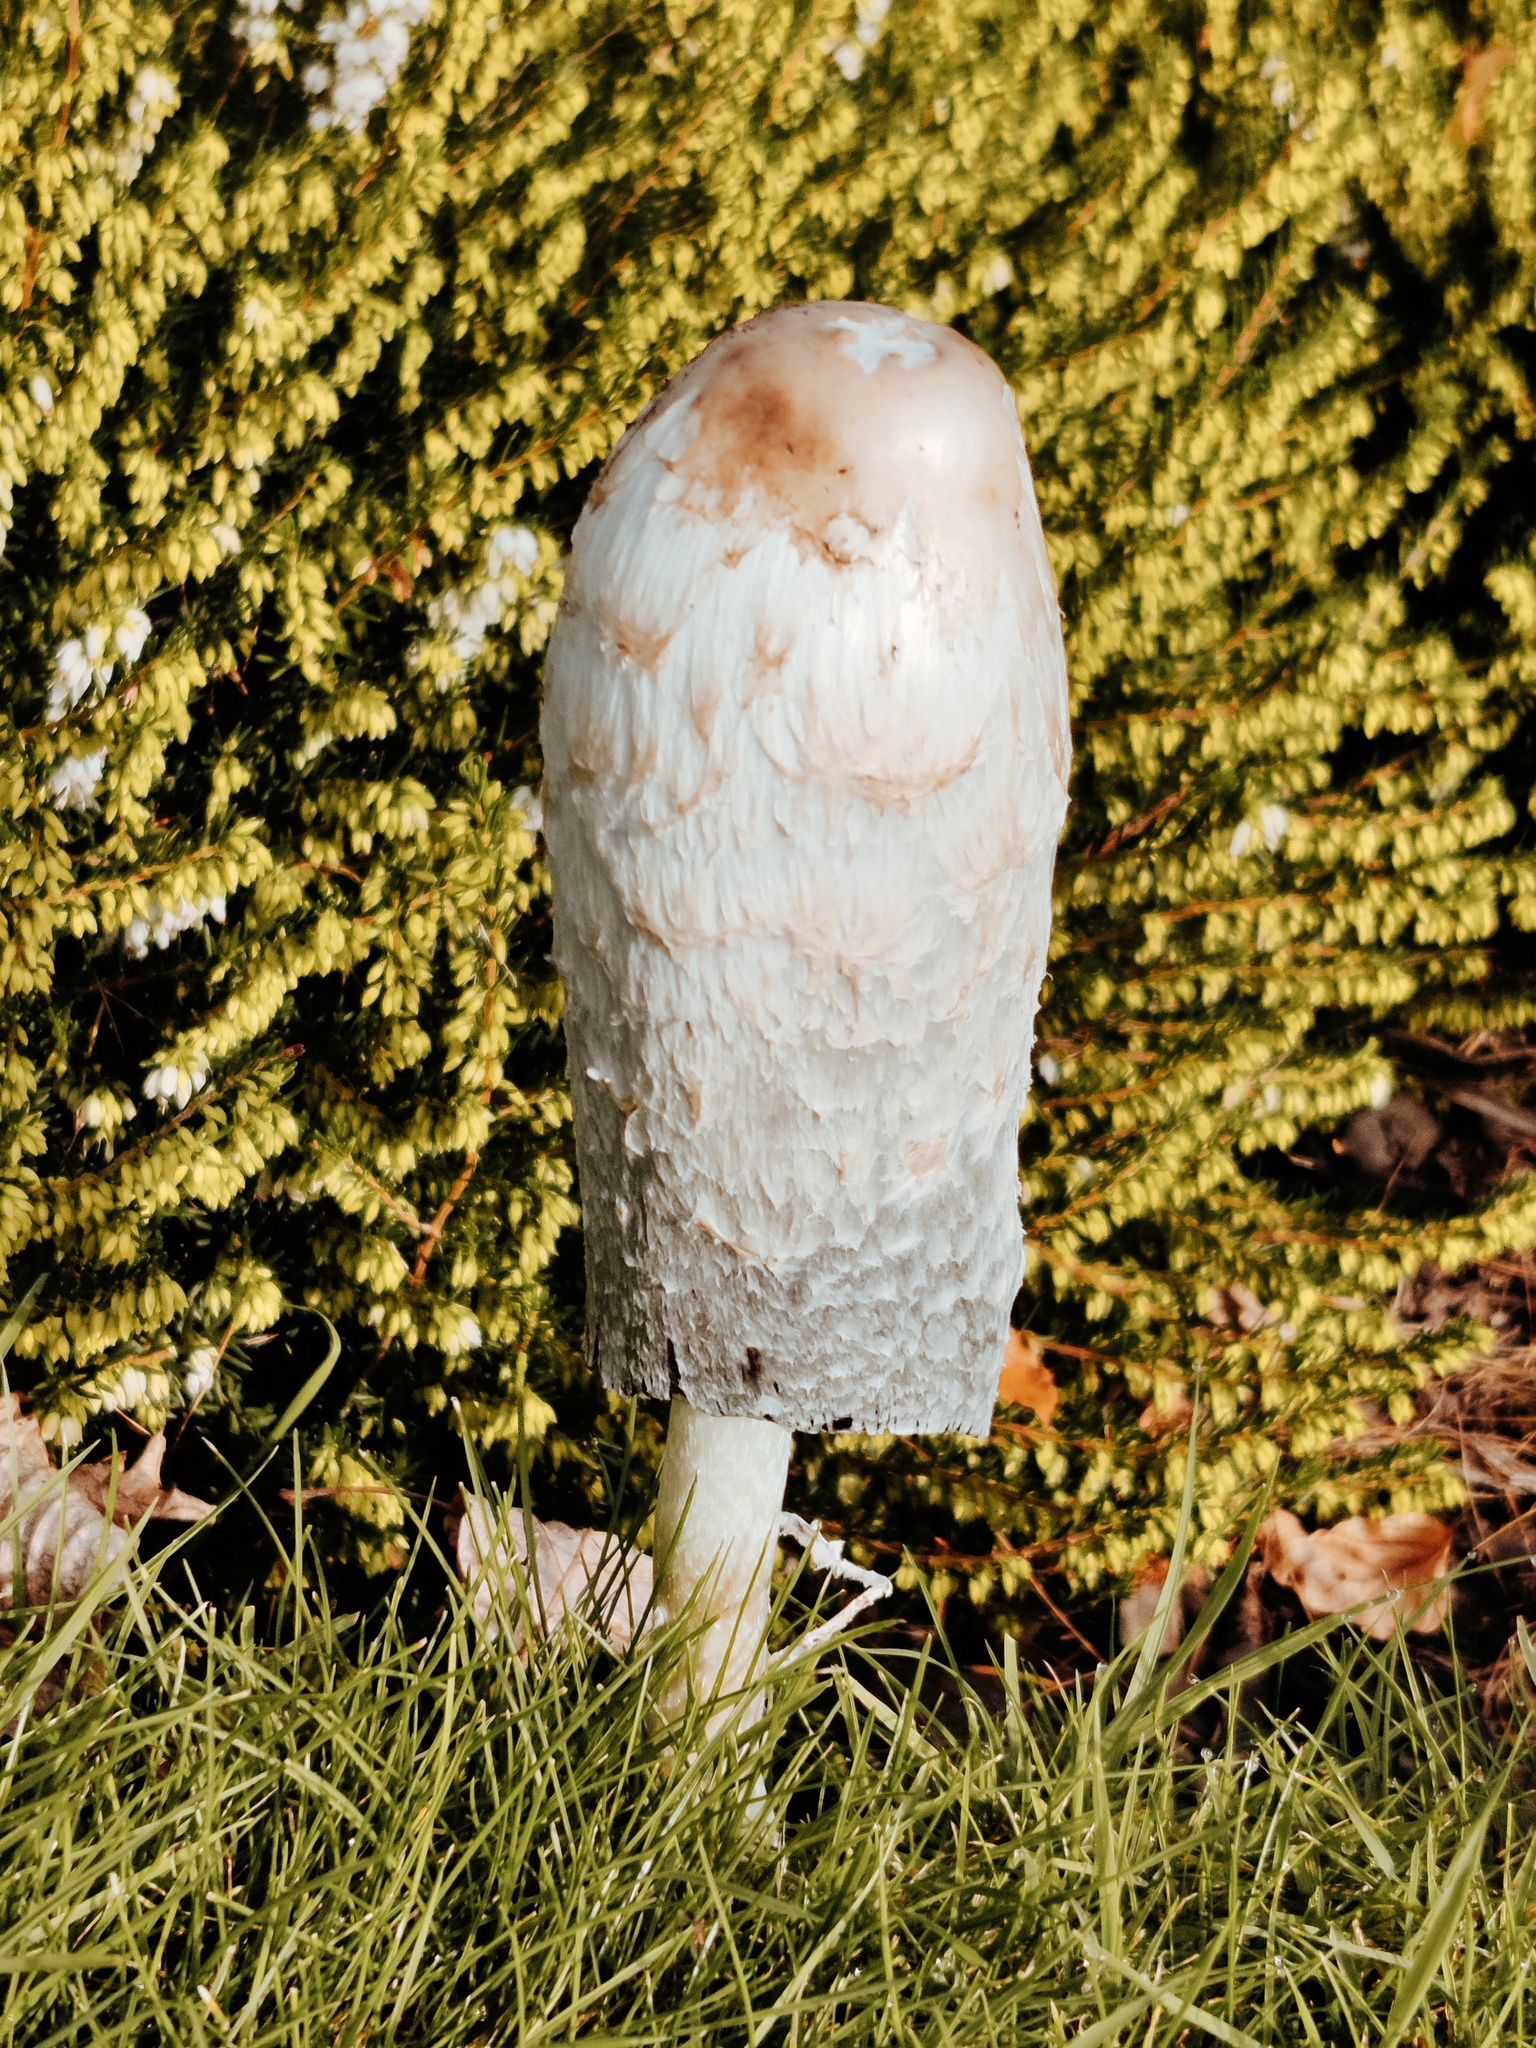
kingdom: Fungi
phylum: Basidiomycota
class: Agaricomycetes
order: Agaricales
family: Agaricaceae
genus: Coprinus
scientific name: Coprinus comatus
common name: Lawyer's wig
